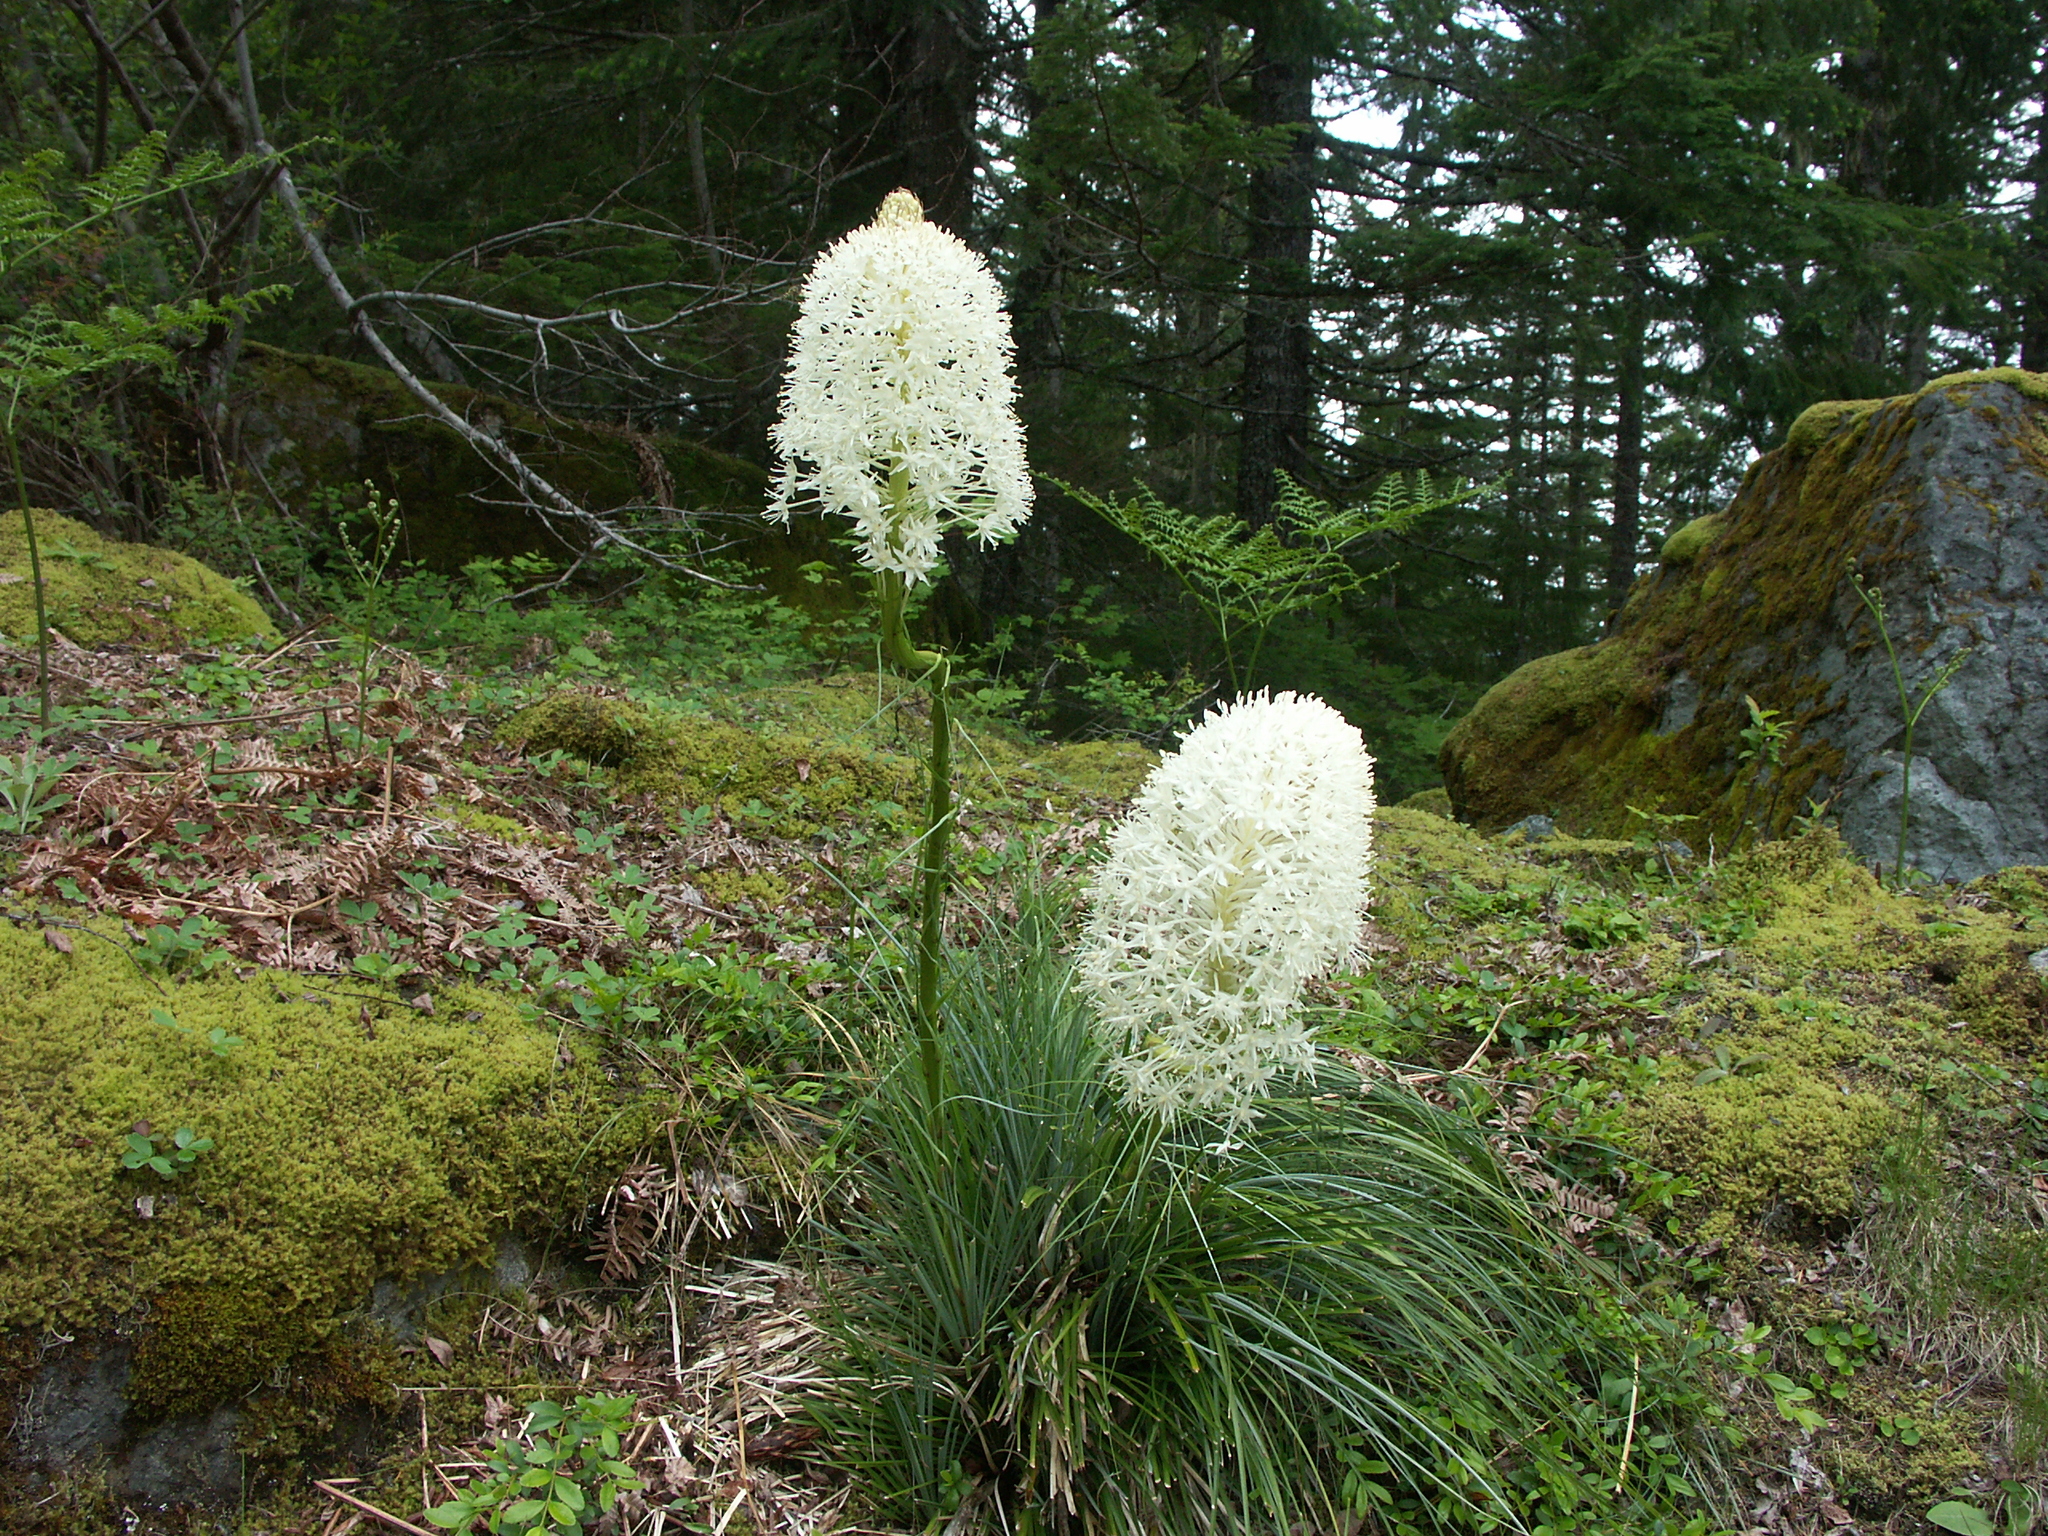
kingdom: Plantae
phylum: Tracheophyta
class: Liliopsida
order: Liliales
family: Melanthiaceae
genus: Xerophyllum
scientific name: Xerophyllum tenax
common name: Bear-grass
